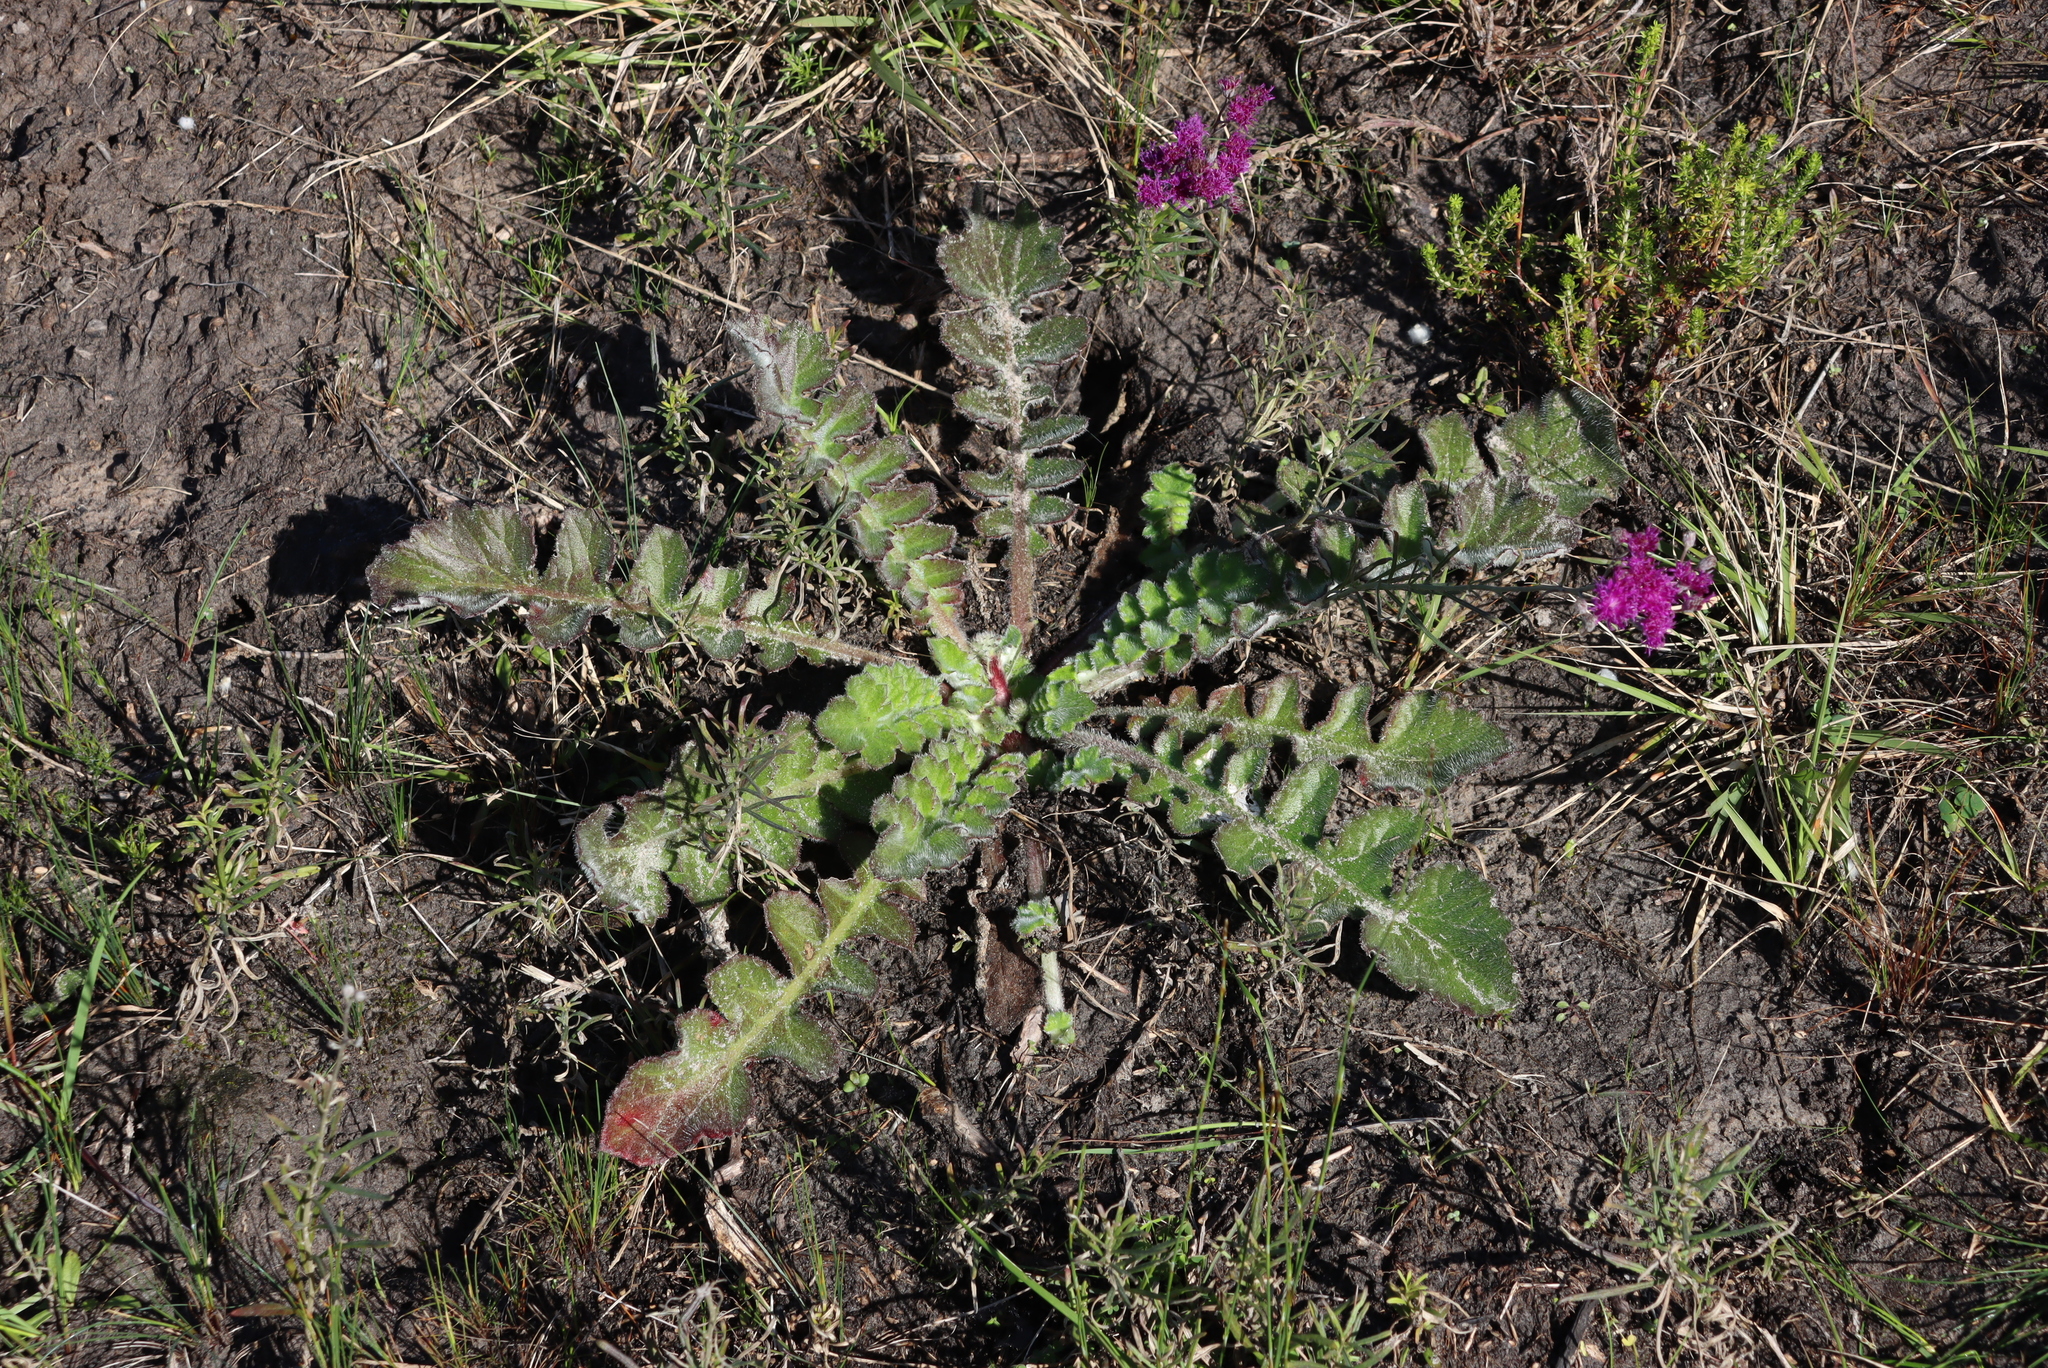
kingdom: Plantae
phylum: Tracheophyta
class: Magnoliopsida
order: Asterales
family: Asteraceae
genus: Arctotheca
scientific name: Arctotheca prostrata
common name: Capeweed
